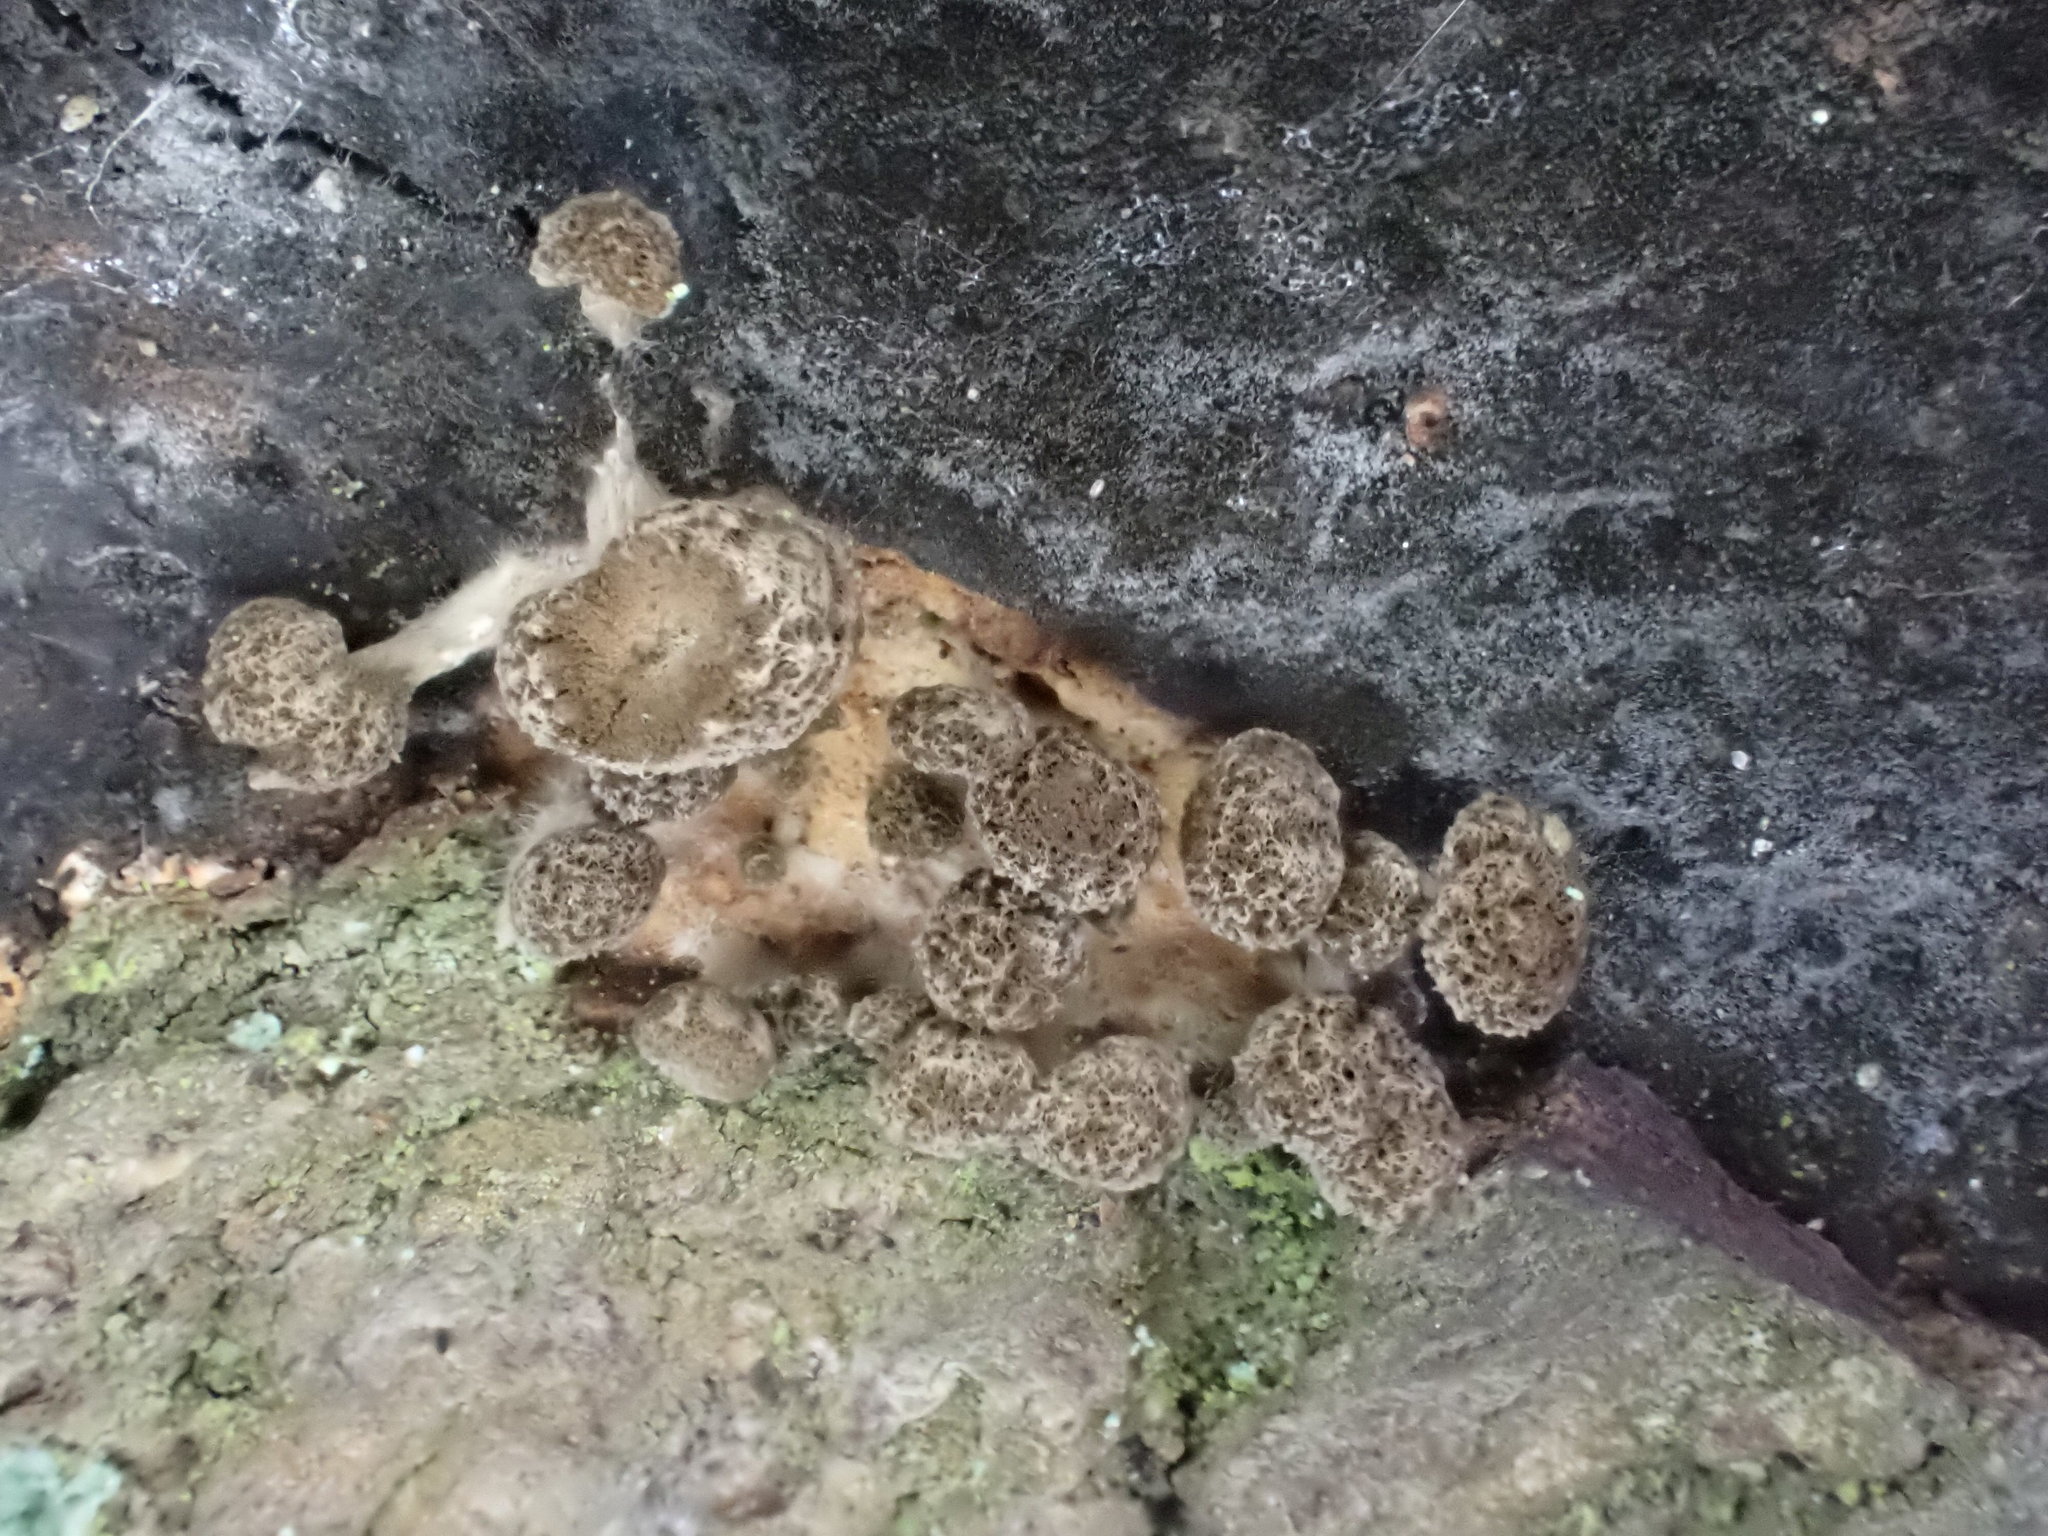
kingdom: Fungi
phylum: Basidiomycota
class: Atractiellomycetes
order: Atractiellales
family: Phleogenaceae
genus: Phleogena
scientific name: Phleogena faginea
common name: Fenugreek stalkball
